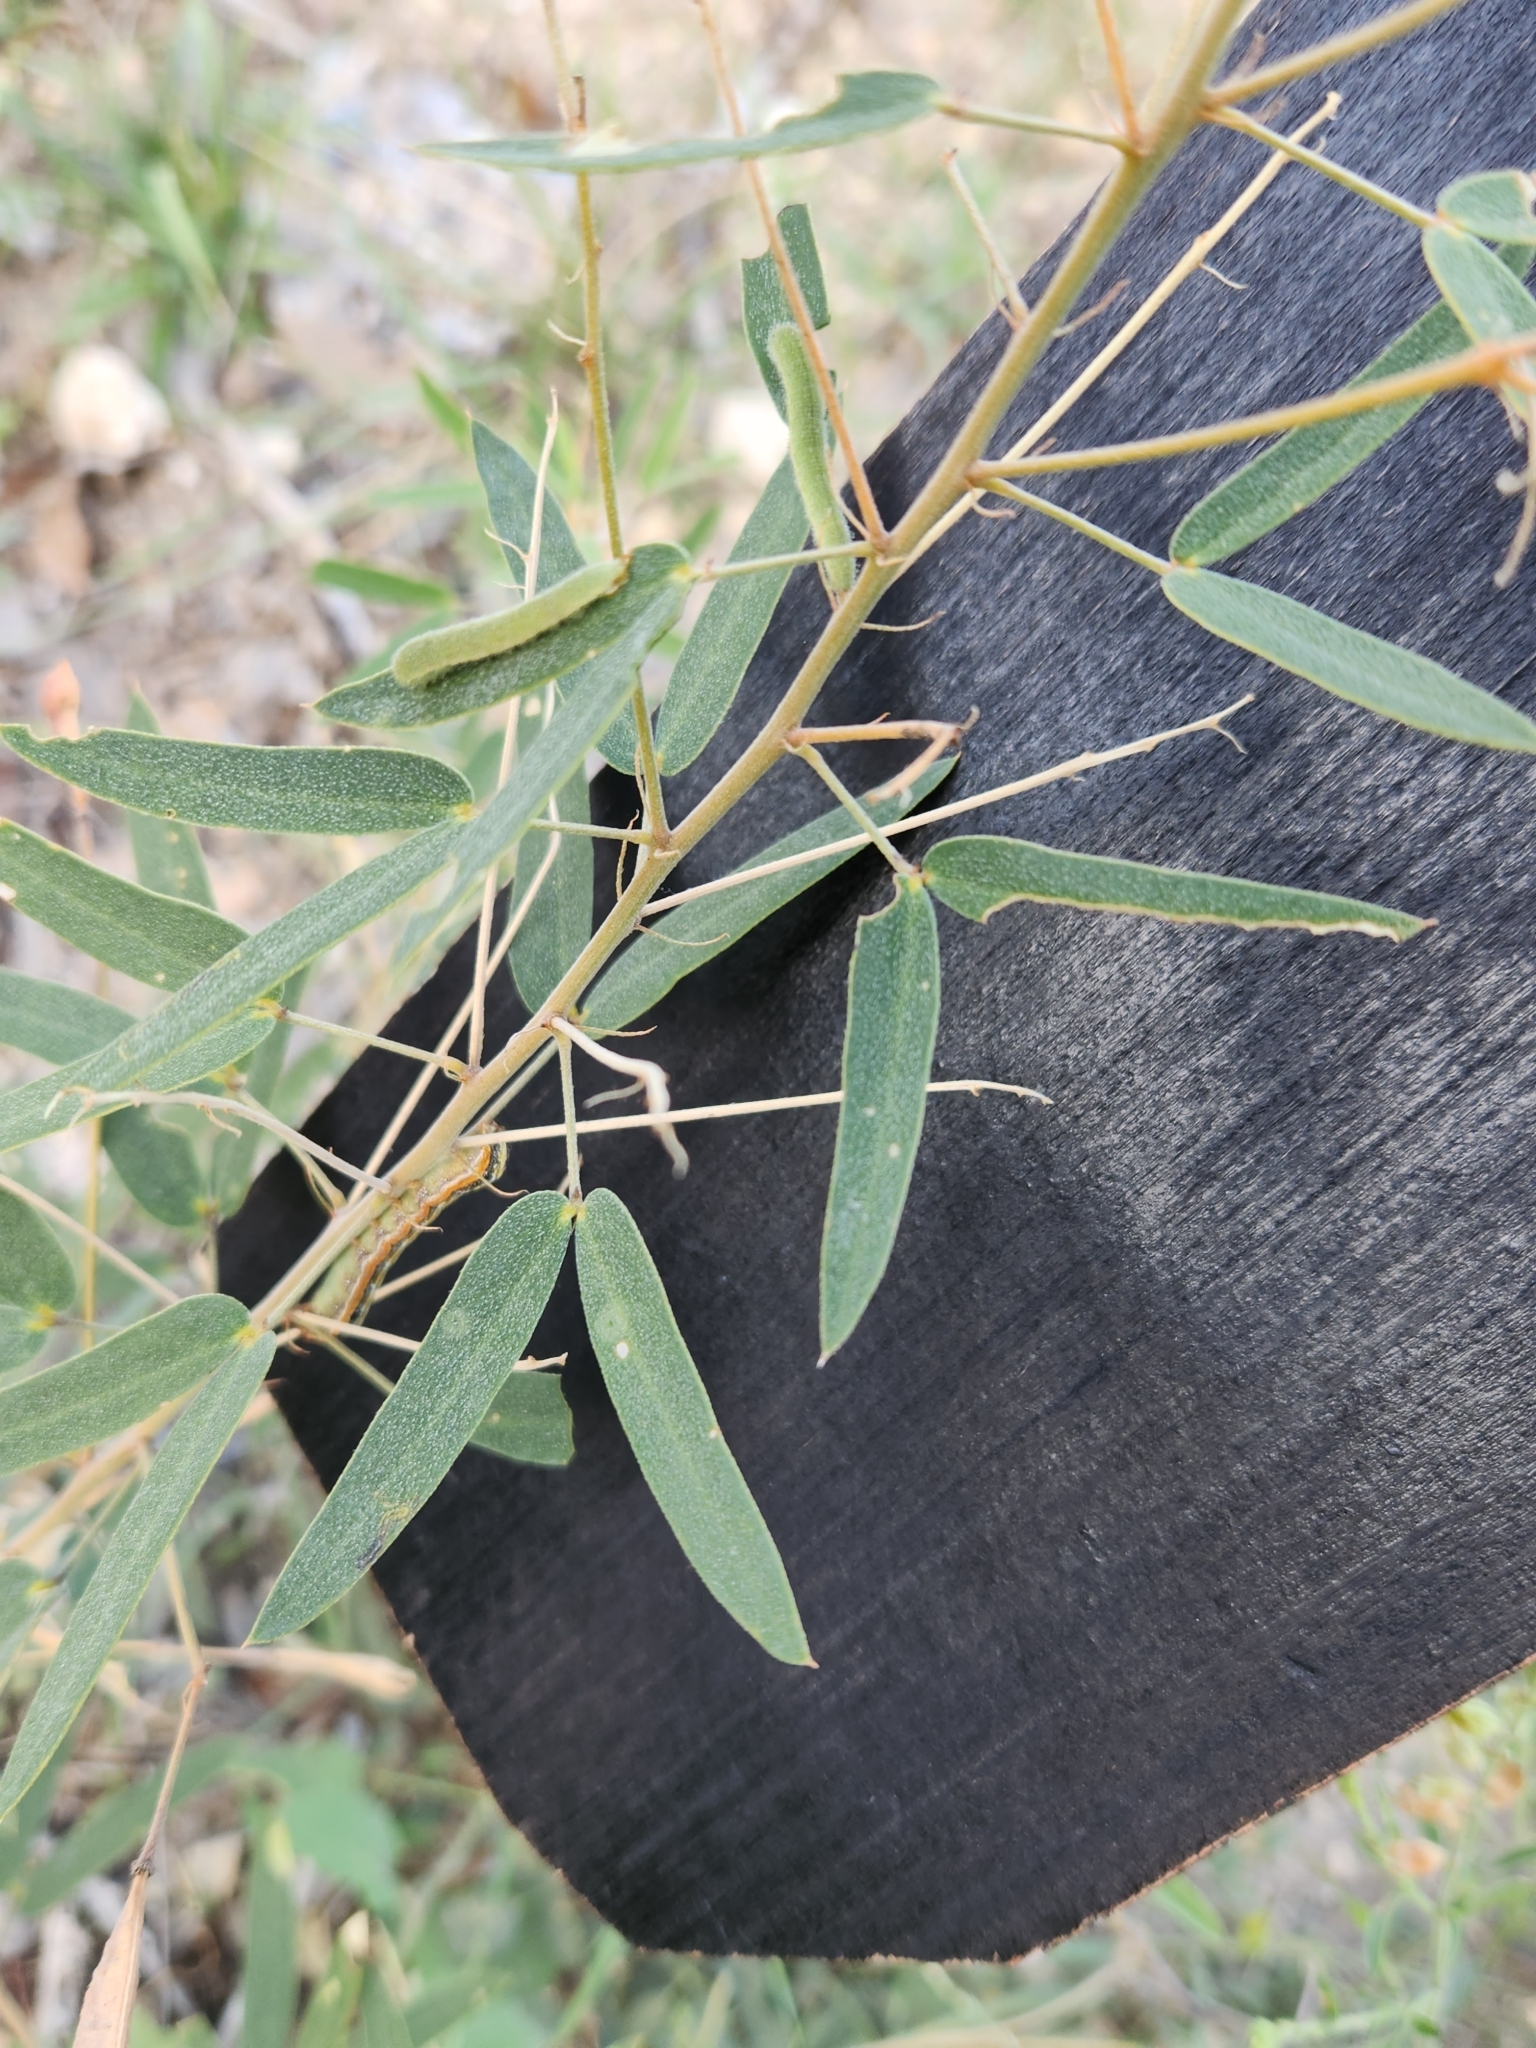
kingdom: Plantae
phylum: Tracheophyta
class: Magnoliopsida
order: Fabales
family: Fabaceae
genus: Senna
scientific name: Senna roemeriana
